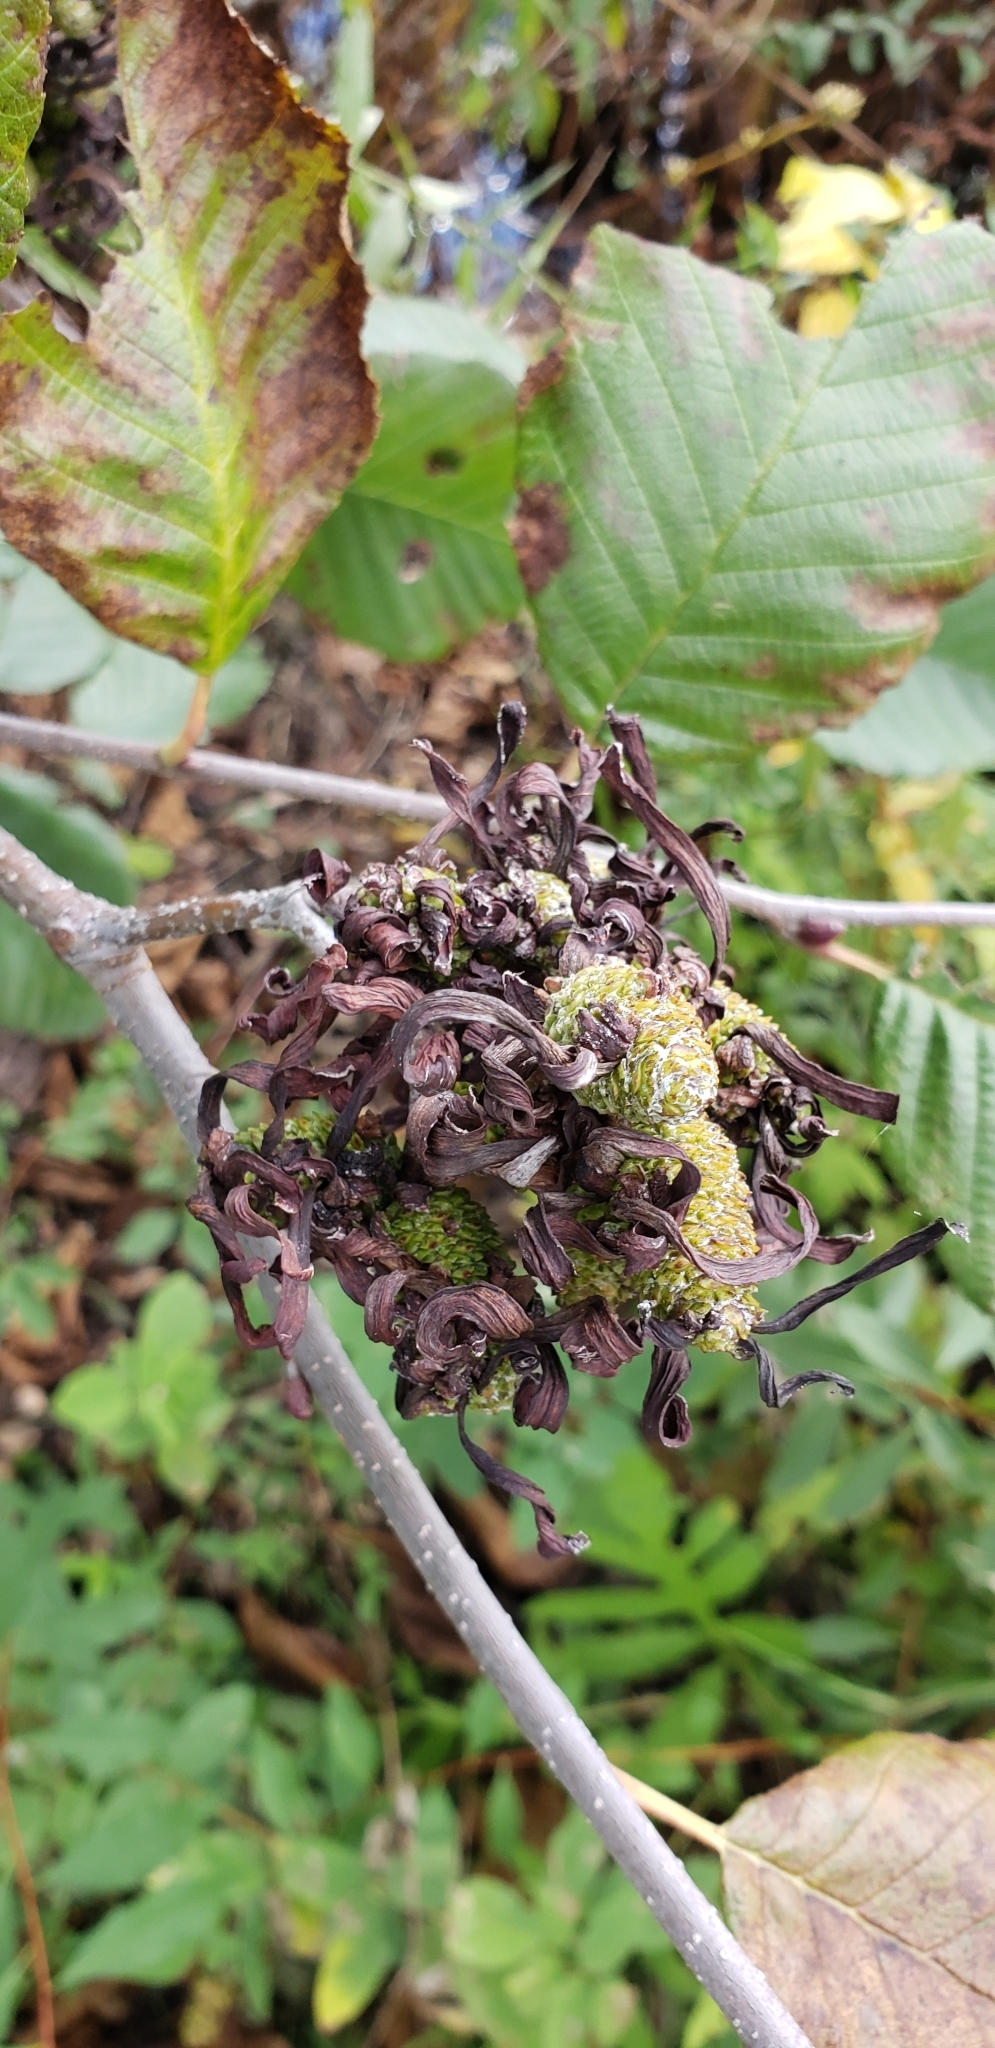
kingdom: Fungi
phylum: Ascomycota
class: Taphrinomycetes
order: Taphrinales
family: Taphrinaceae
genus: Taphrina
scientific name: Taphrina robinsoniana
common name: Eastern american alder tongue gall fungus
